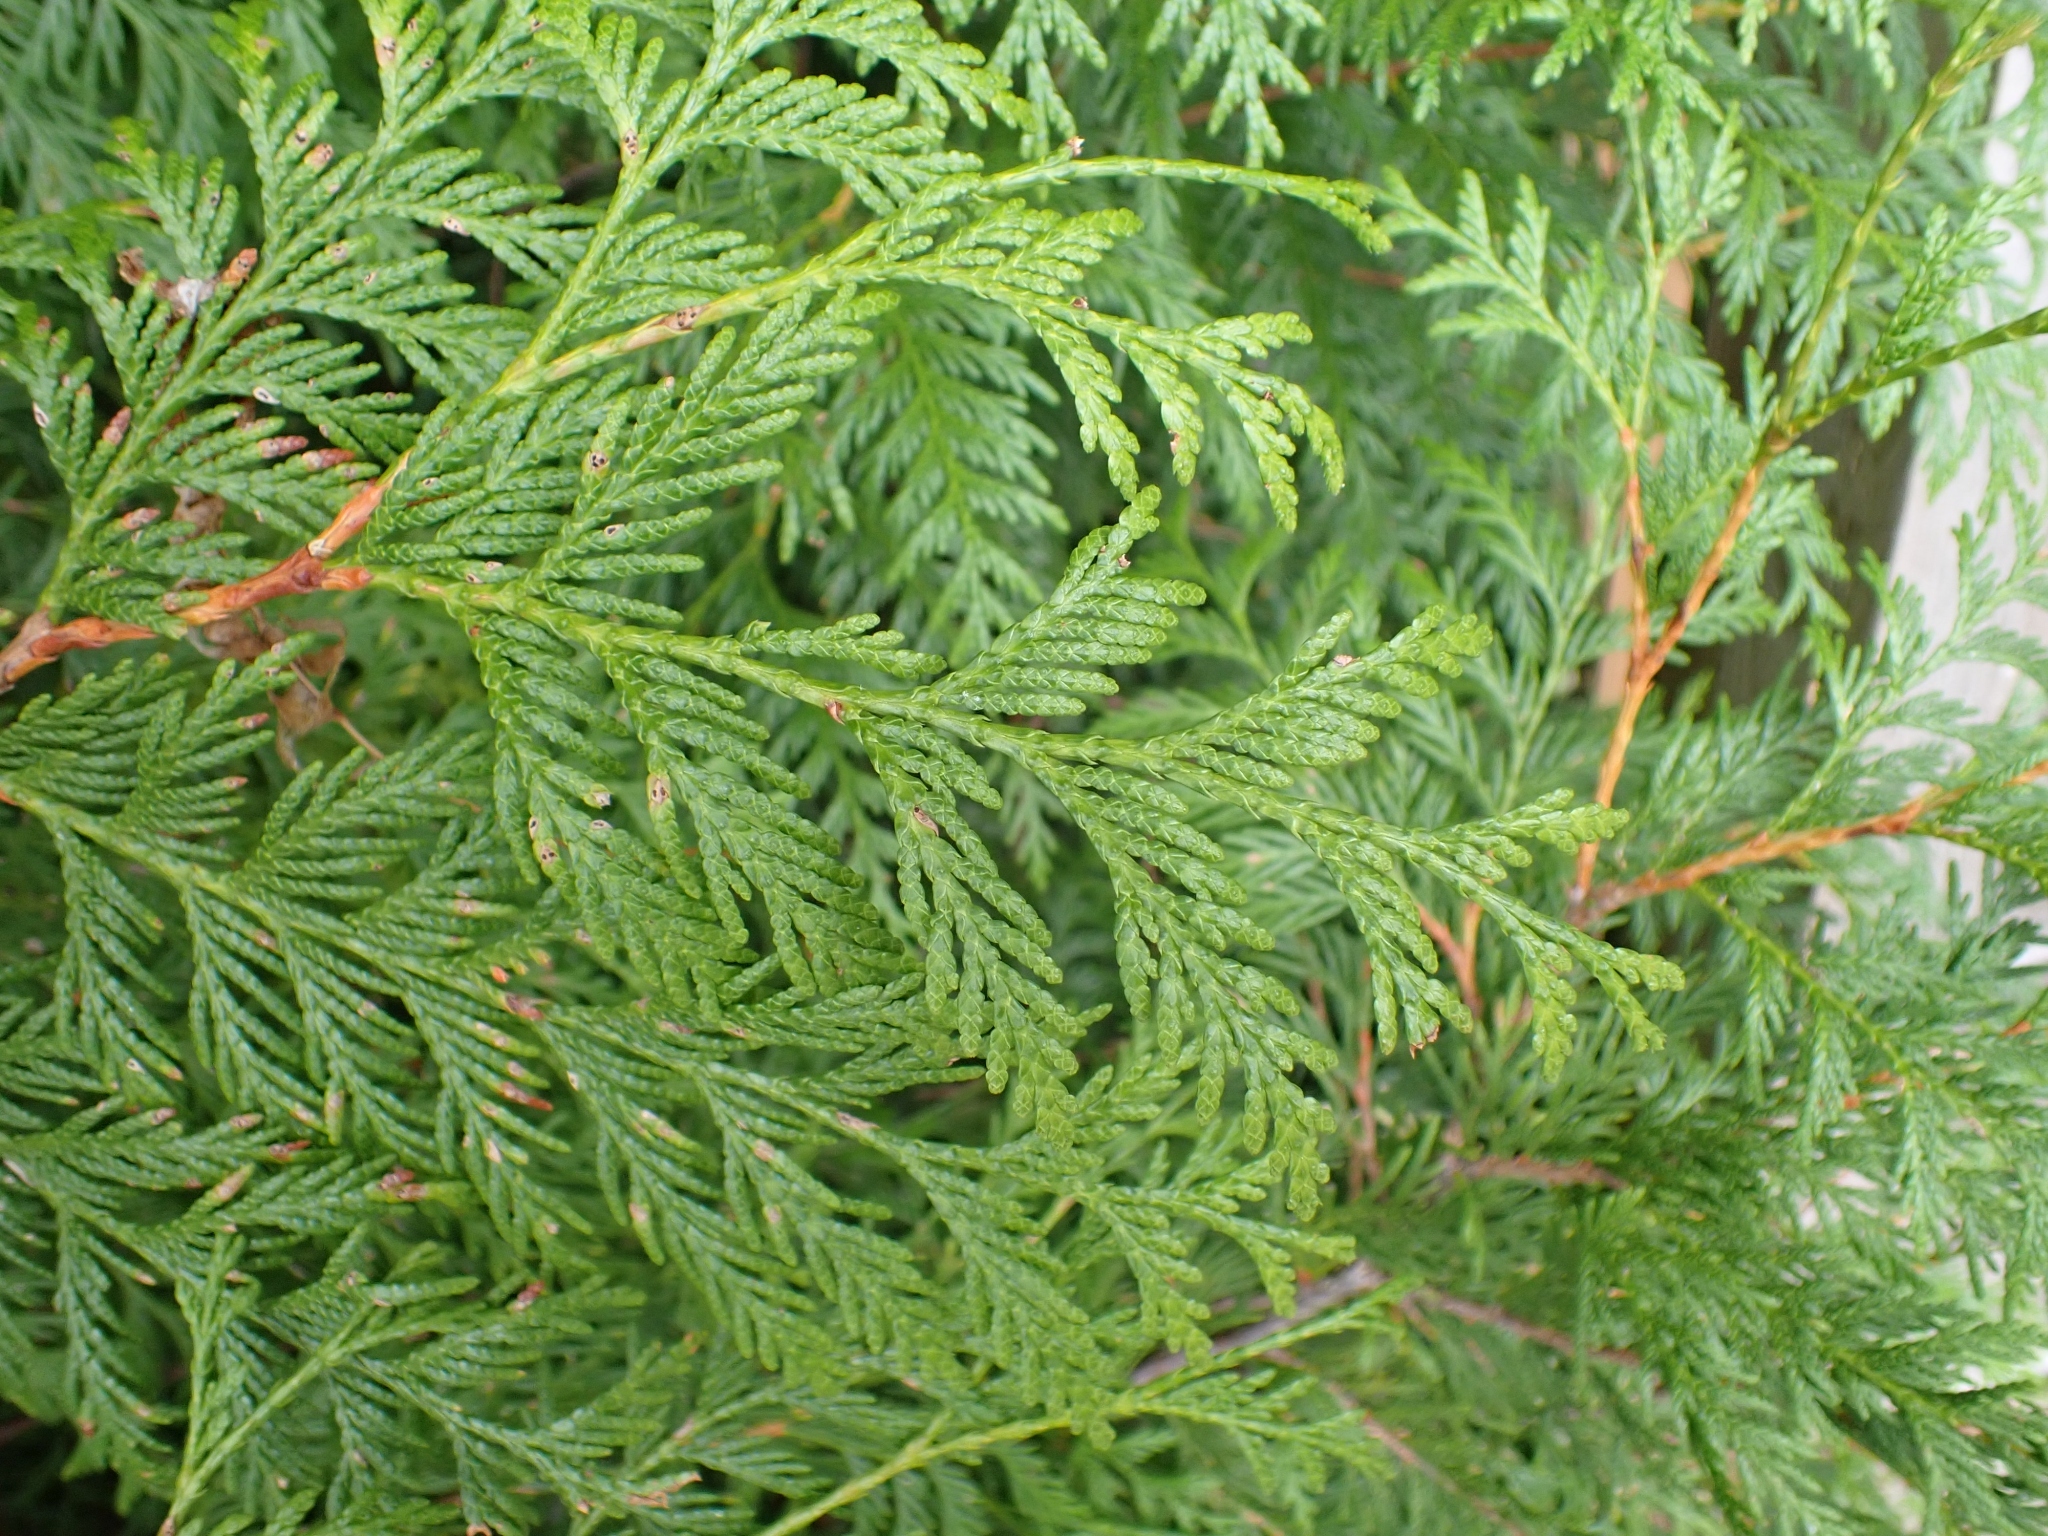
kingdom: Plantae
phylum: Tracheophyta
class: Pinopsida
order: Pinales
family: Cupressaceae
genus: Thuja
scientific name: Thuja plicata
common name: Western red-cedar
